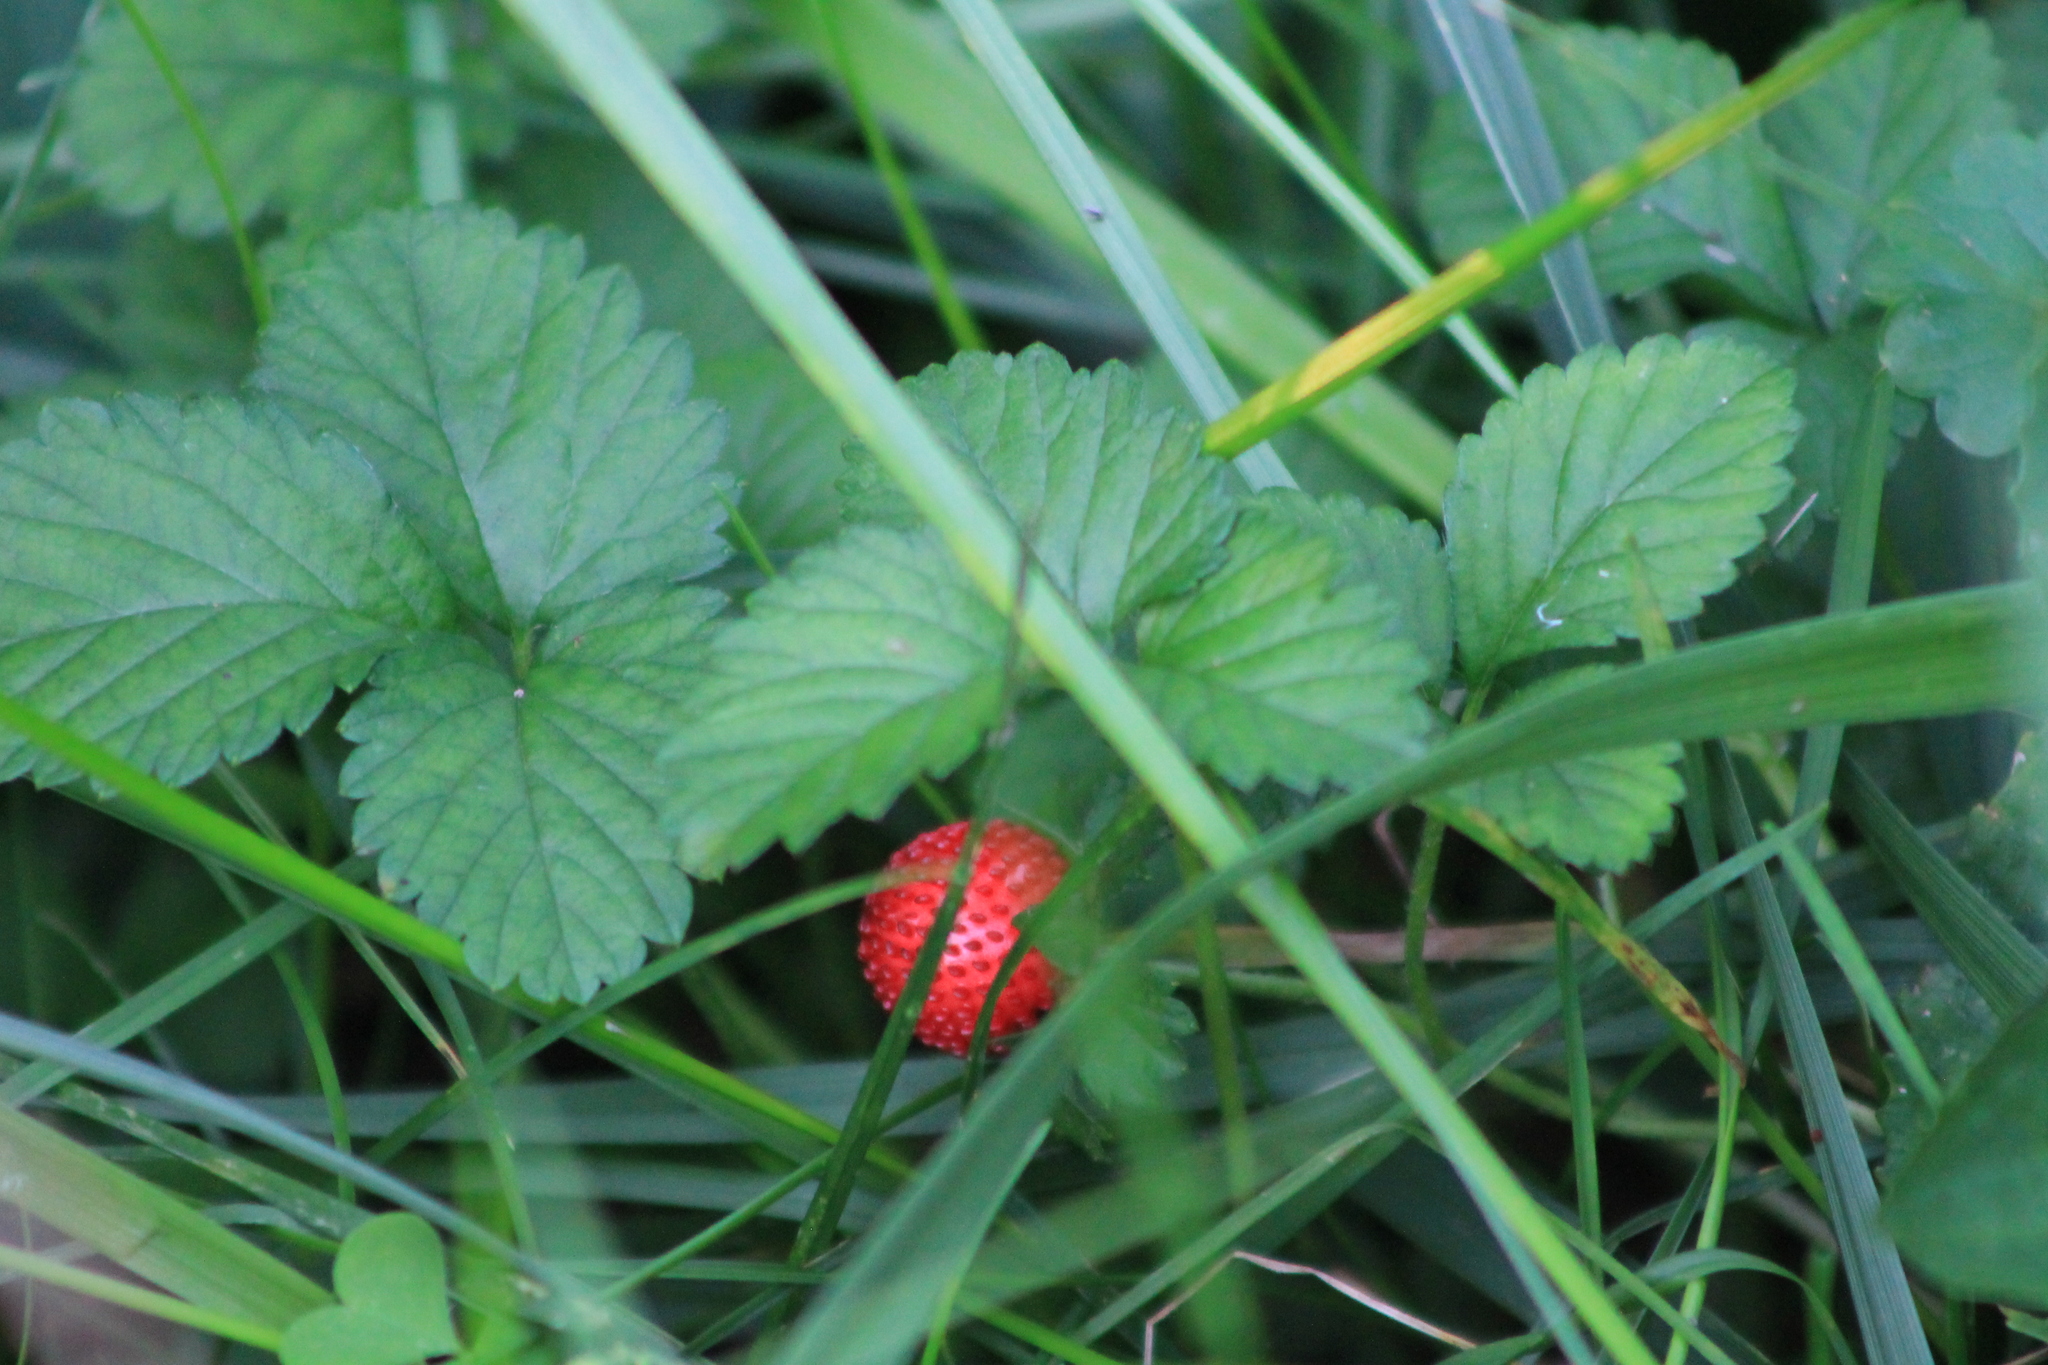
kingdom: Plantae
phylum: Tracheophyta
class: Magnoliopsida
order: Rosales
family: Rosaceae
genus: Potentilla
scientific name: Potentilla indica
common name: Yellow-flowered strawberry
